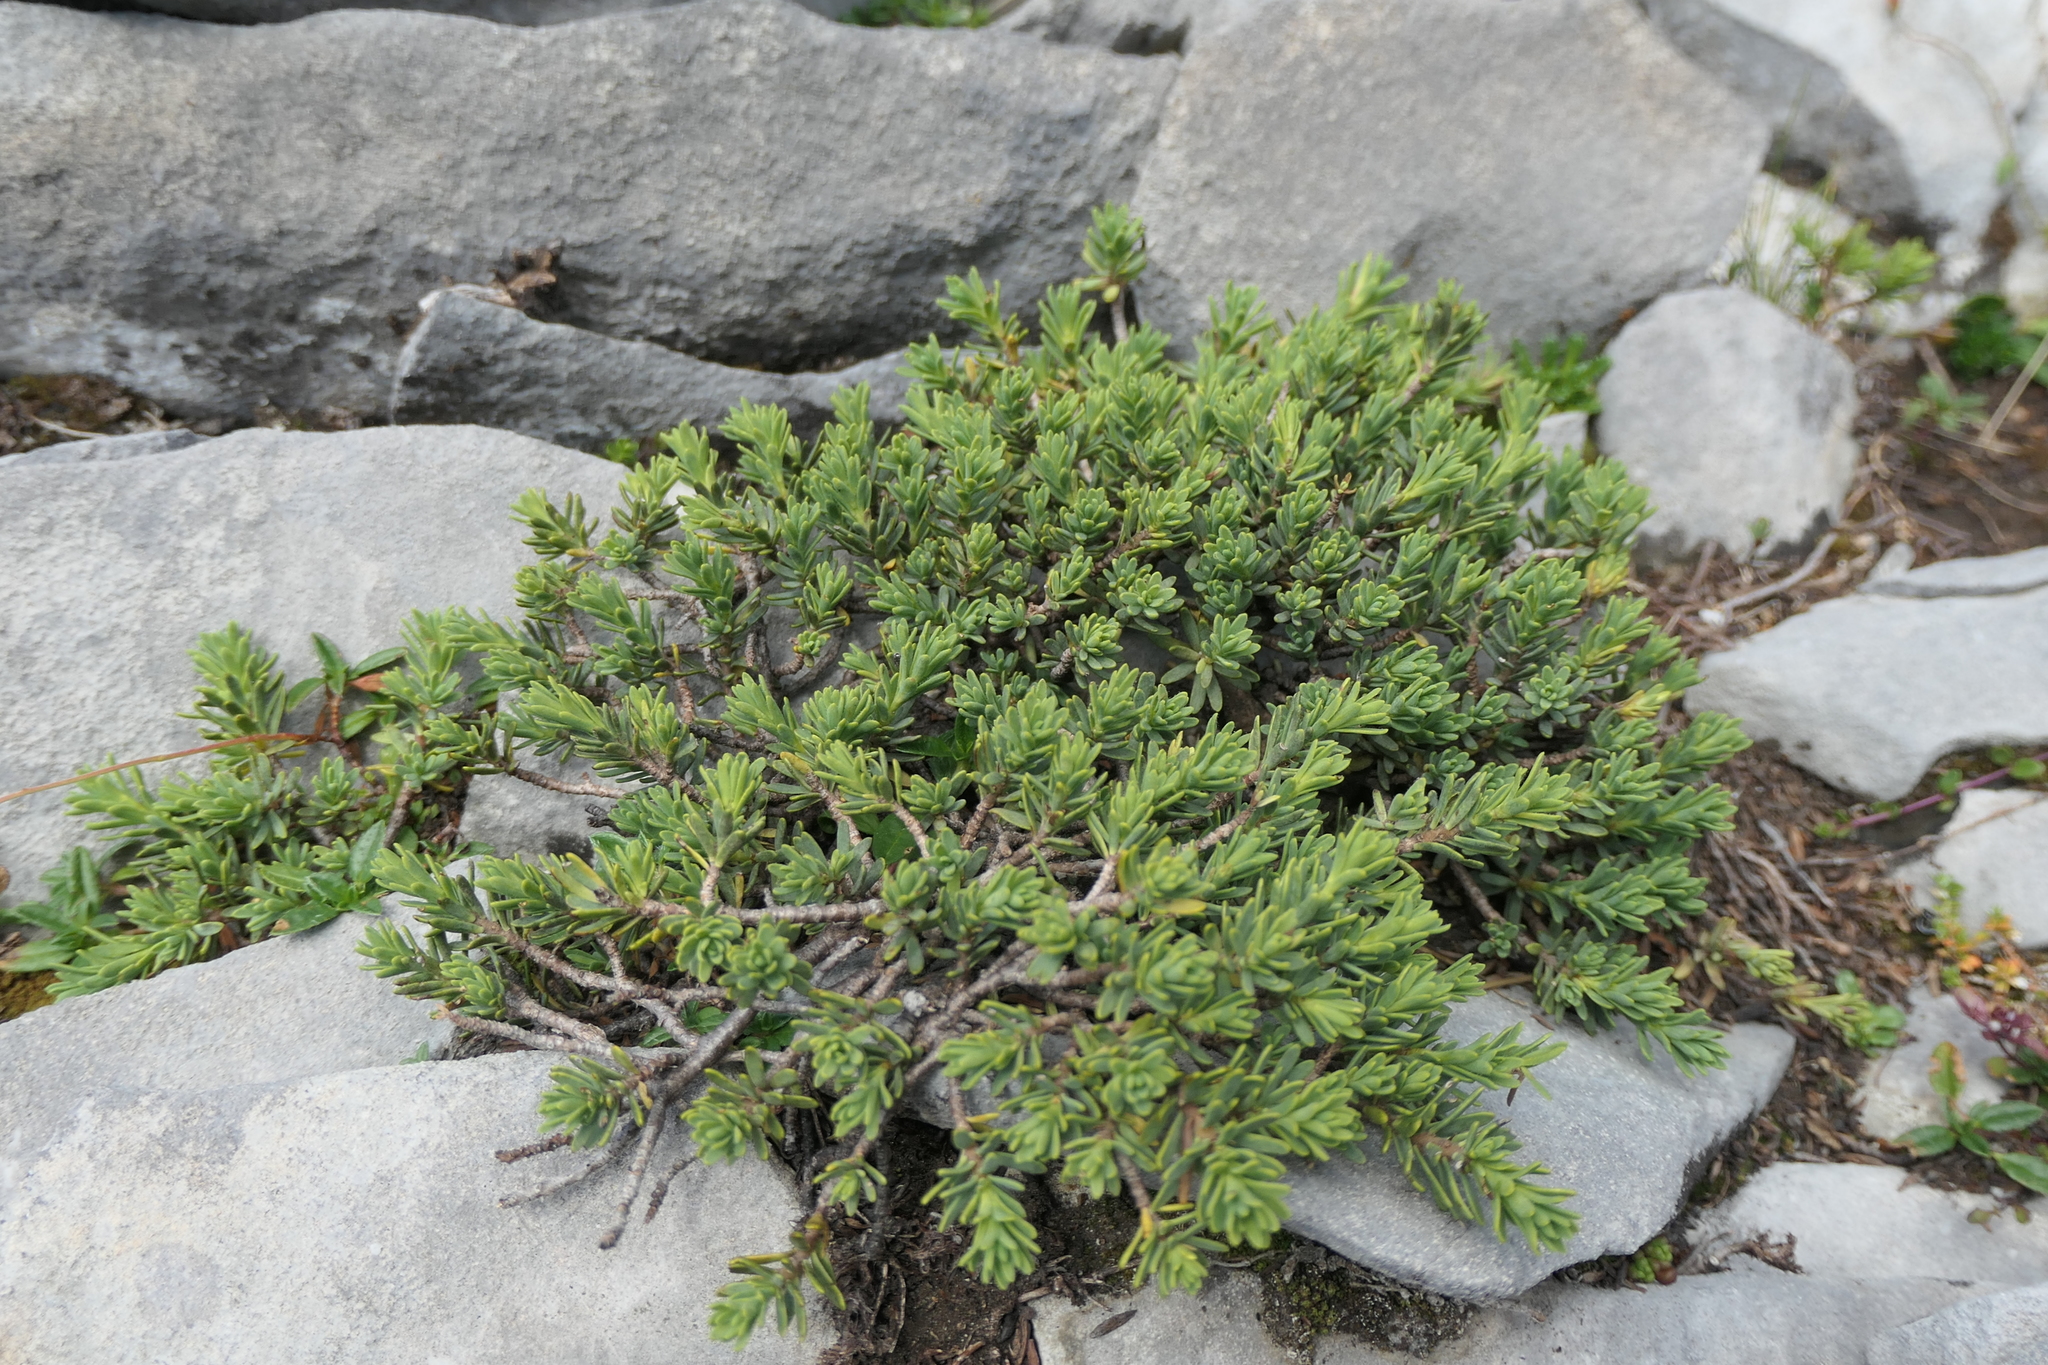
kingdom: Plantae
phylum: Tracheophyta
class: Magnoliopsida
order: Malvales
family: Thymelaeaceae
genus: Thymelaea
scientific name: Thymelaea tinctoria
